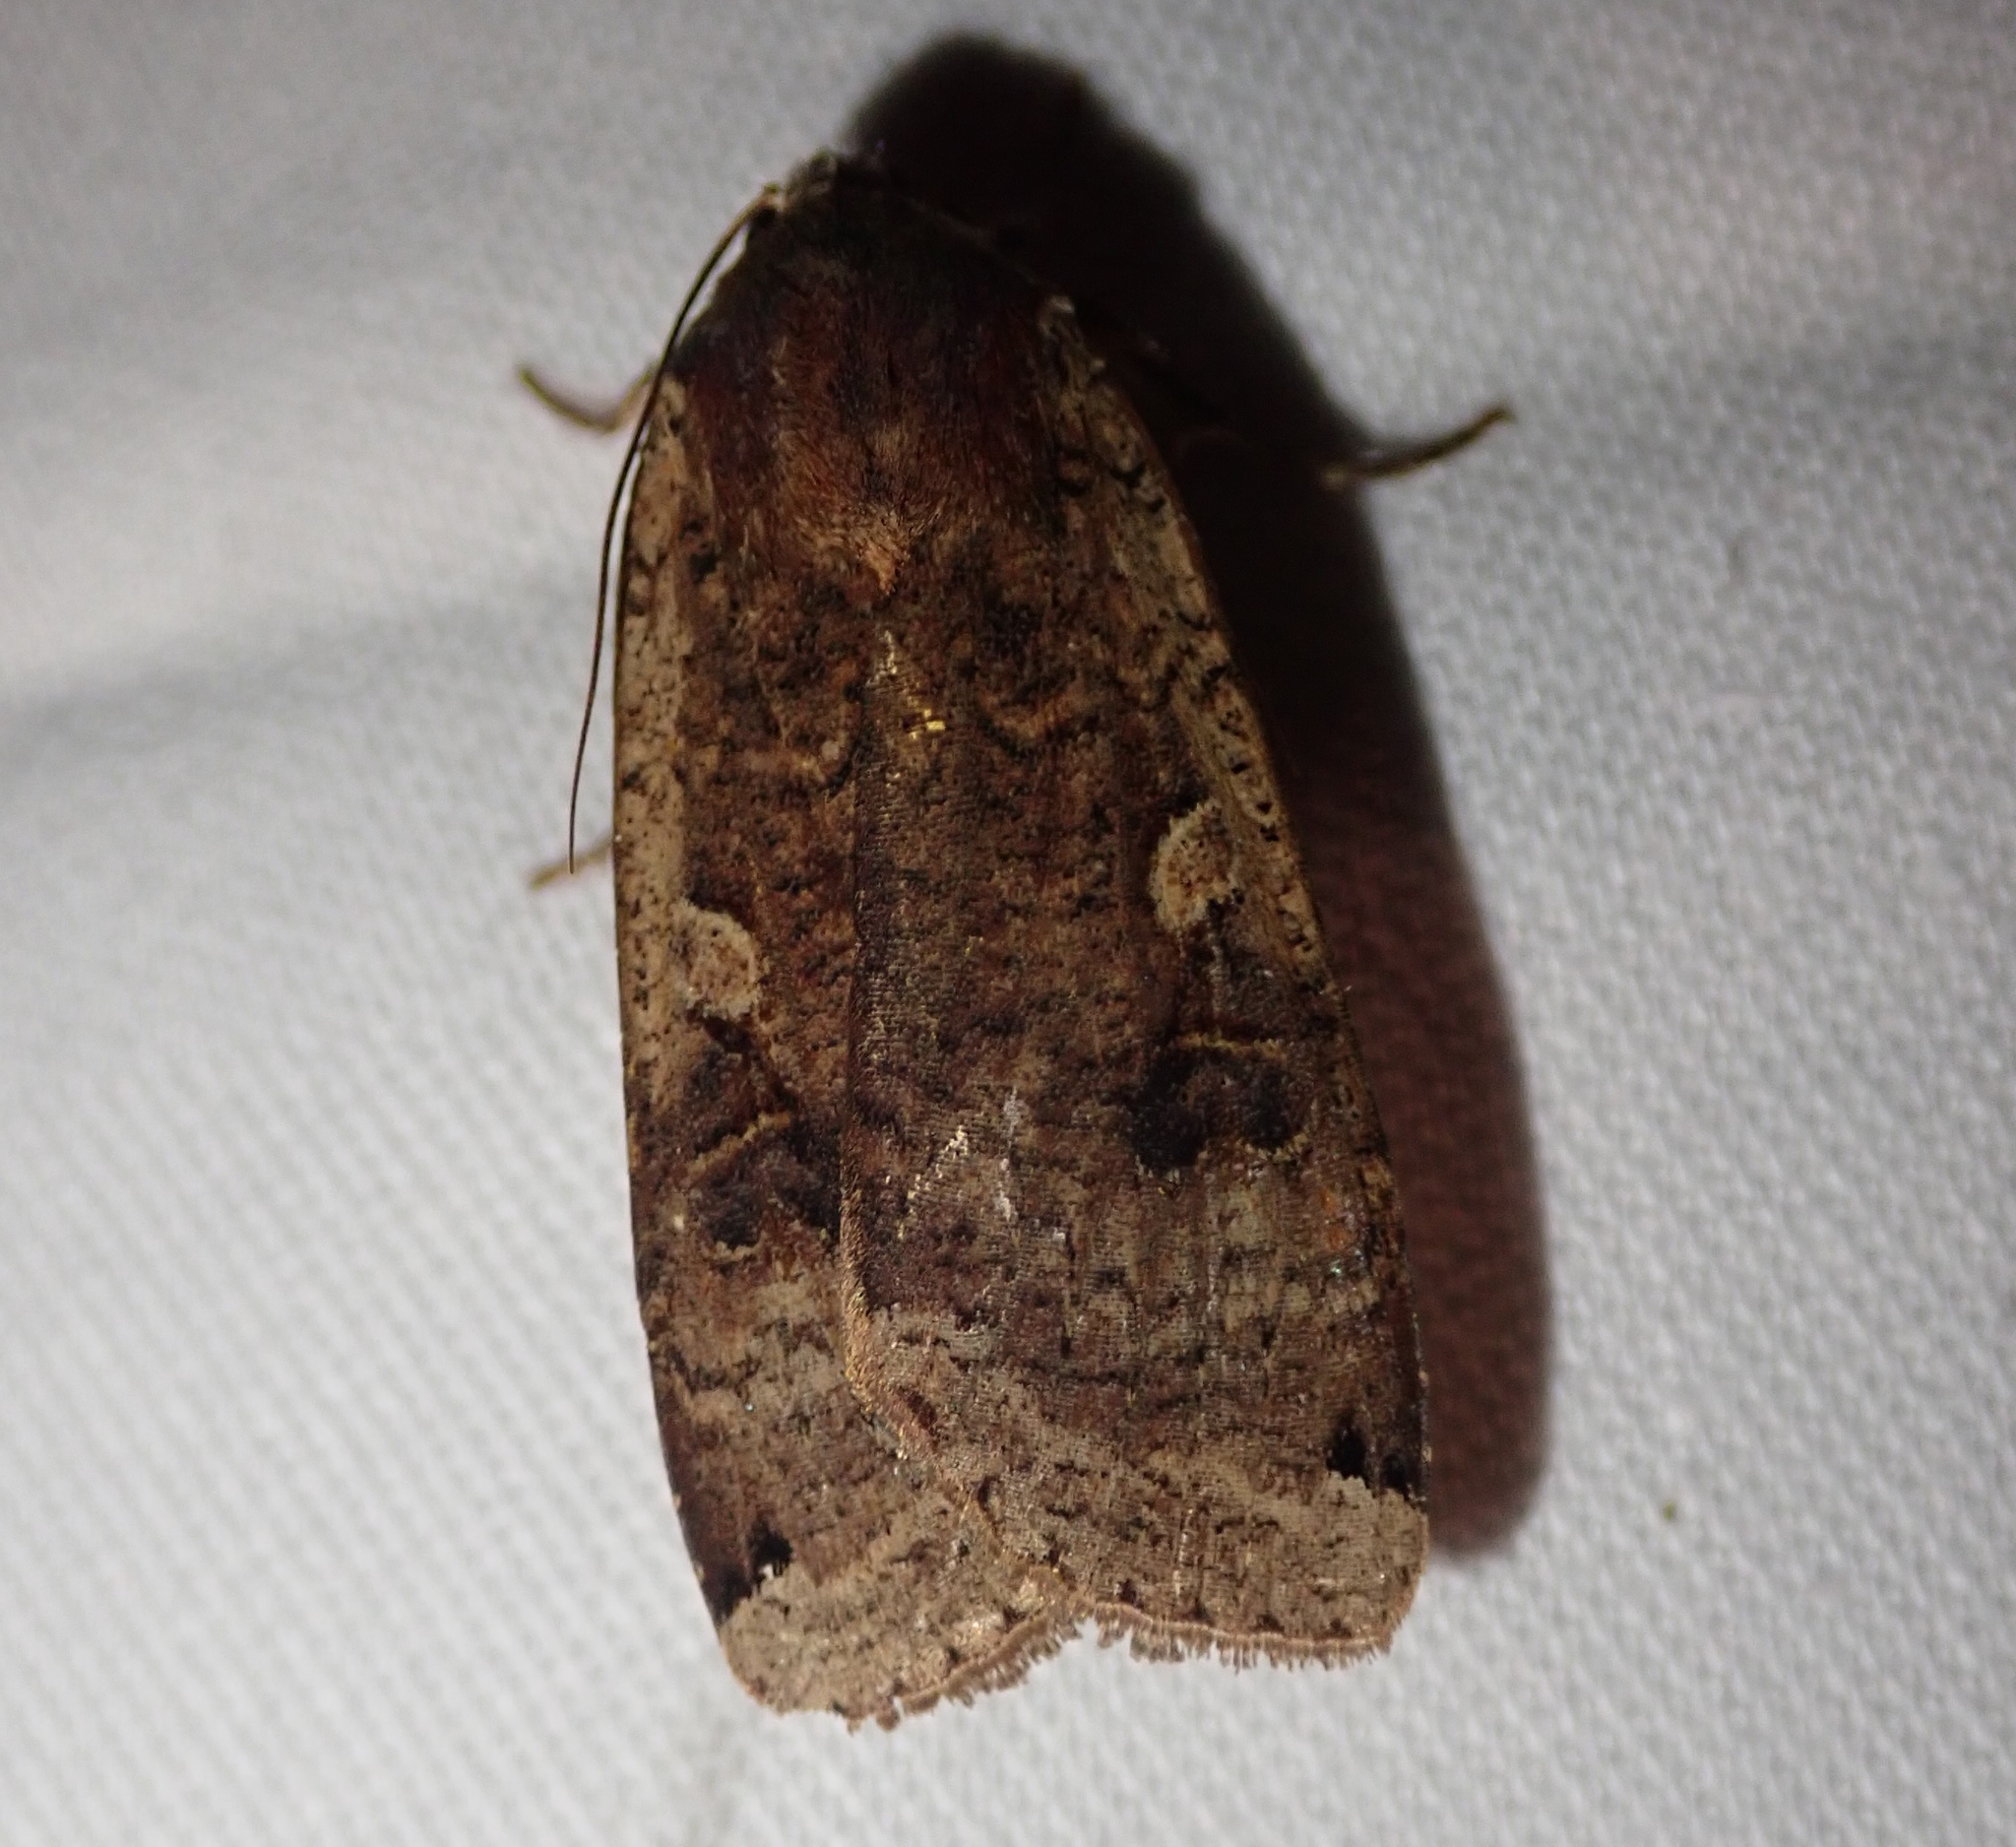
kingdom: Animalia
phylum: Arthropoda
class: Insecta
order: Lepidoptera
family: Noctuidae
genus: Noctua
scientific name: Noctua pronuba
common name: Large yellow underwing
